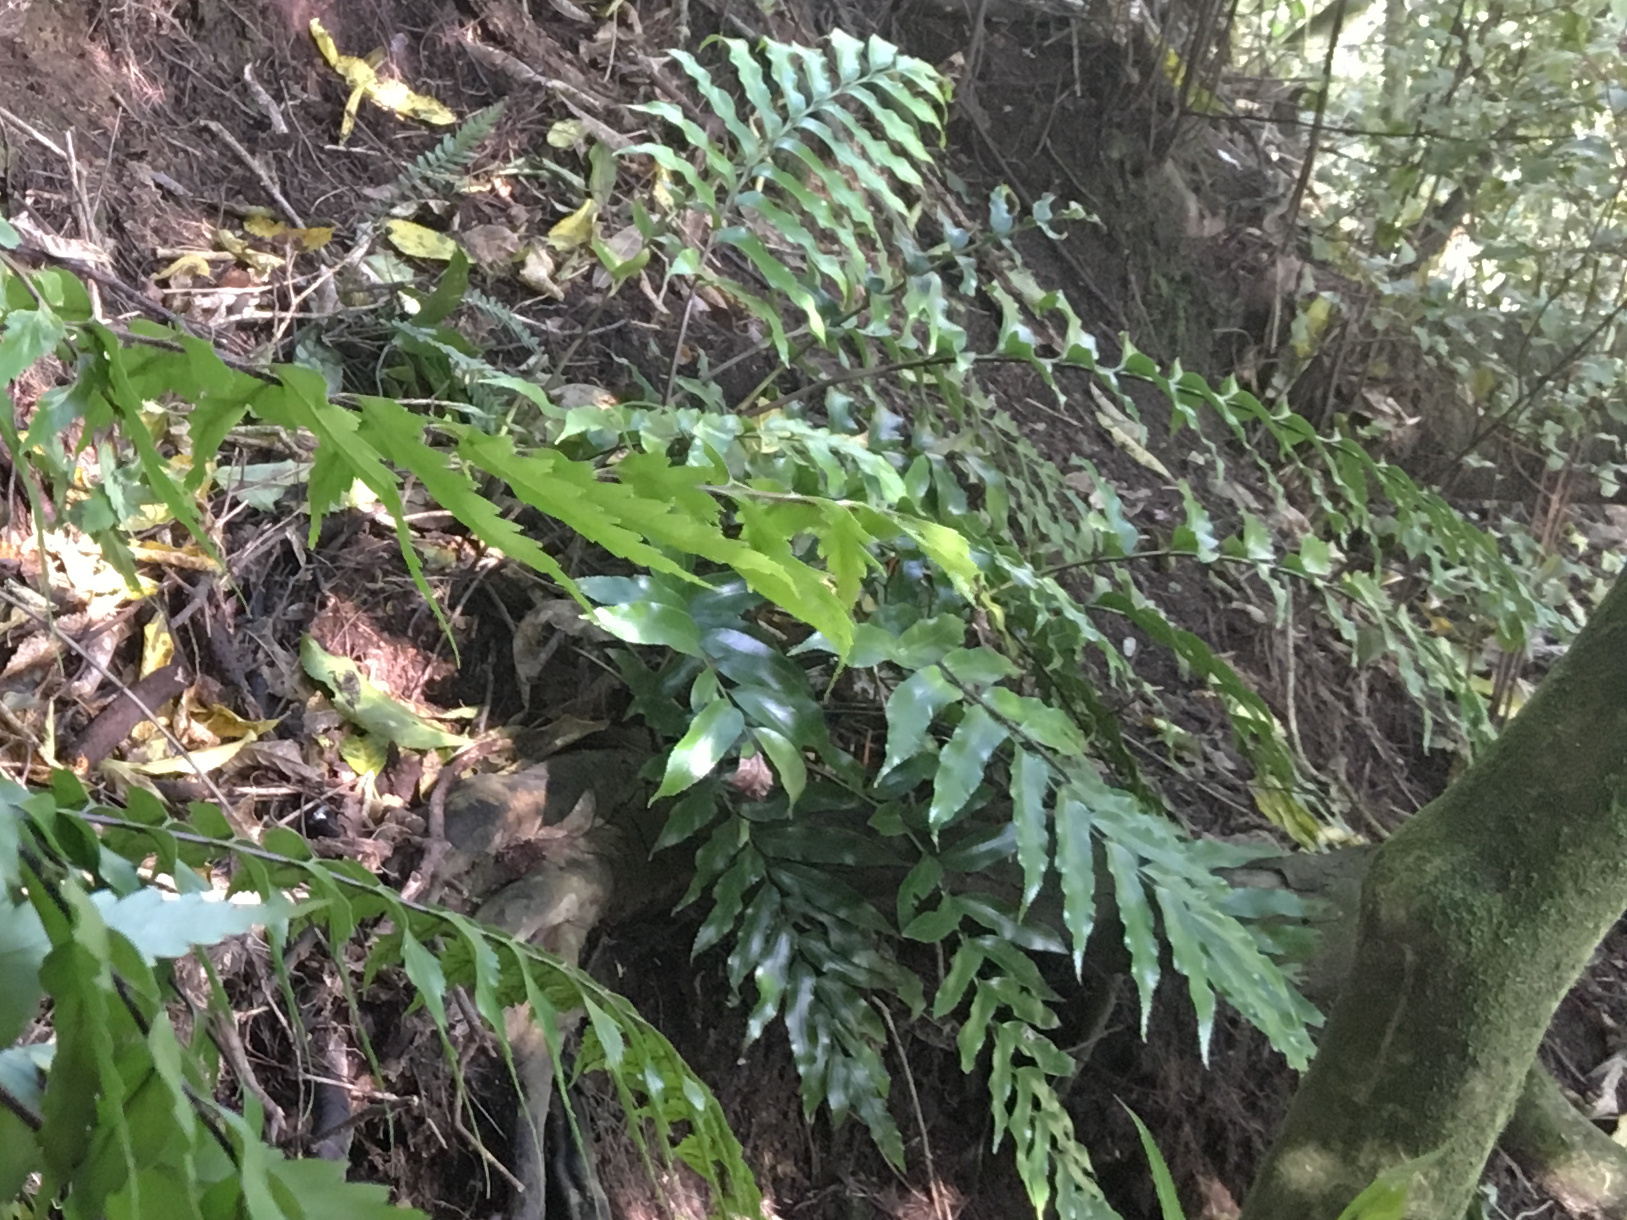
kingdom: Plantae
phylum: Tracheophyta
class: Polypodiopsida
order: Polypodiales
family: Aspleniaceae
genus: Asplenium
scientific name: Asplenium oblongifolium
